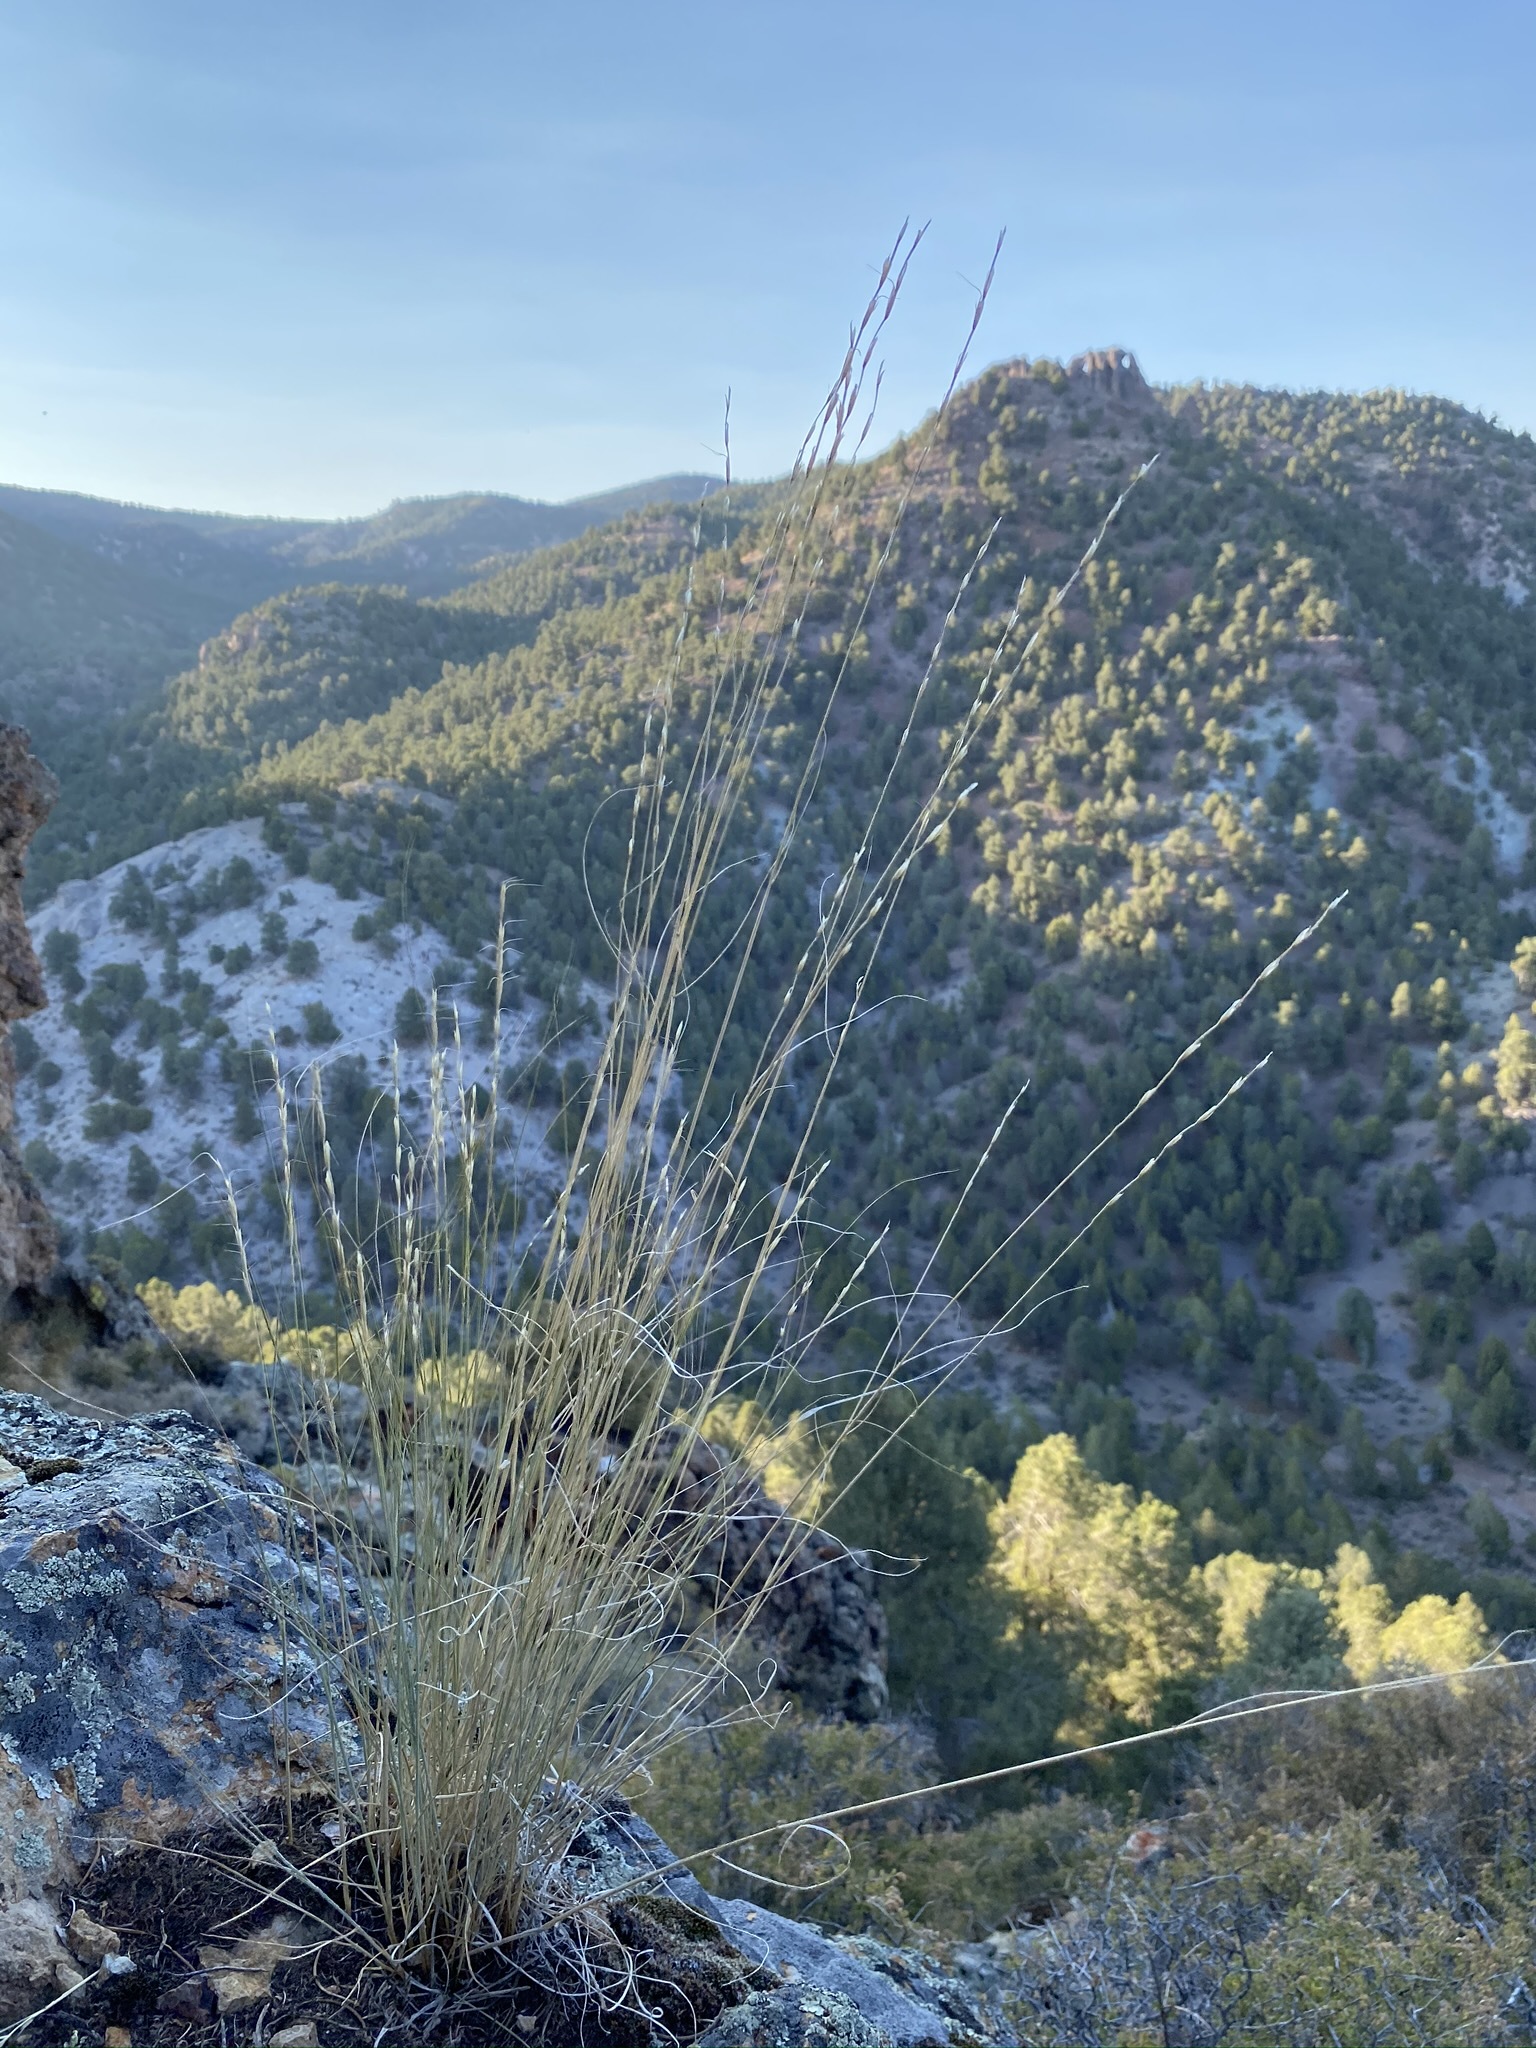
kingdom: Plantae
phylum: Tracheophyta
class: Liliopsida
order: Poales
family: Poaceae
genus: Pseudoroegneria
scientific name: Pseudoroegneria spicata
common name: Bluebunch wheatgrass
